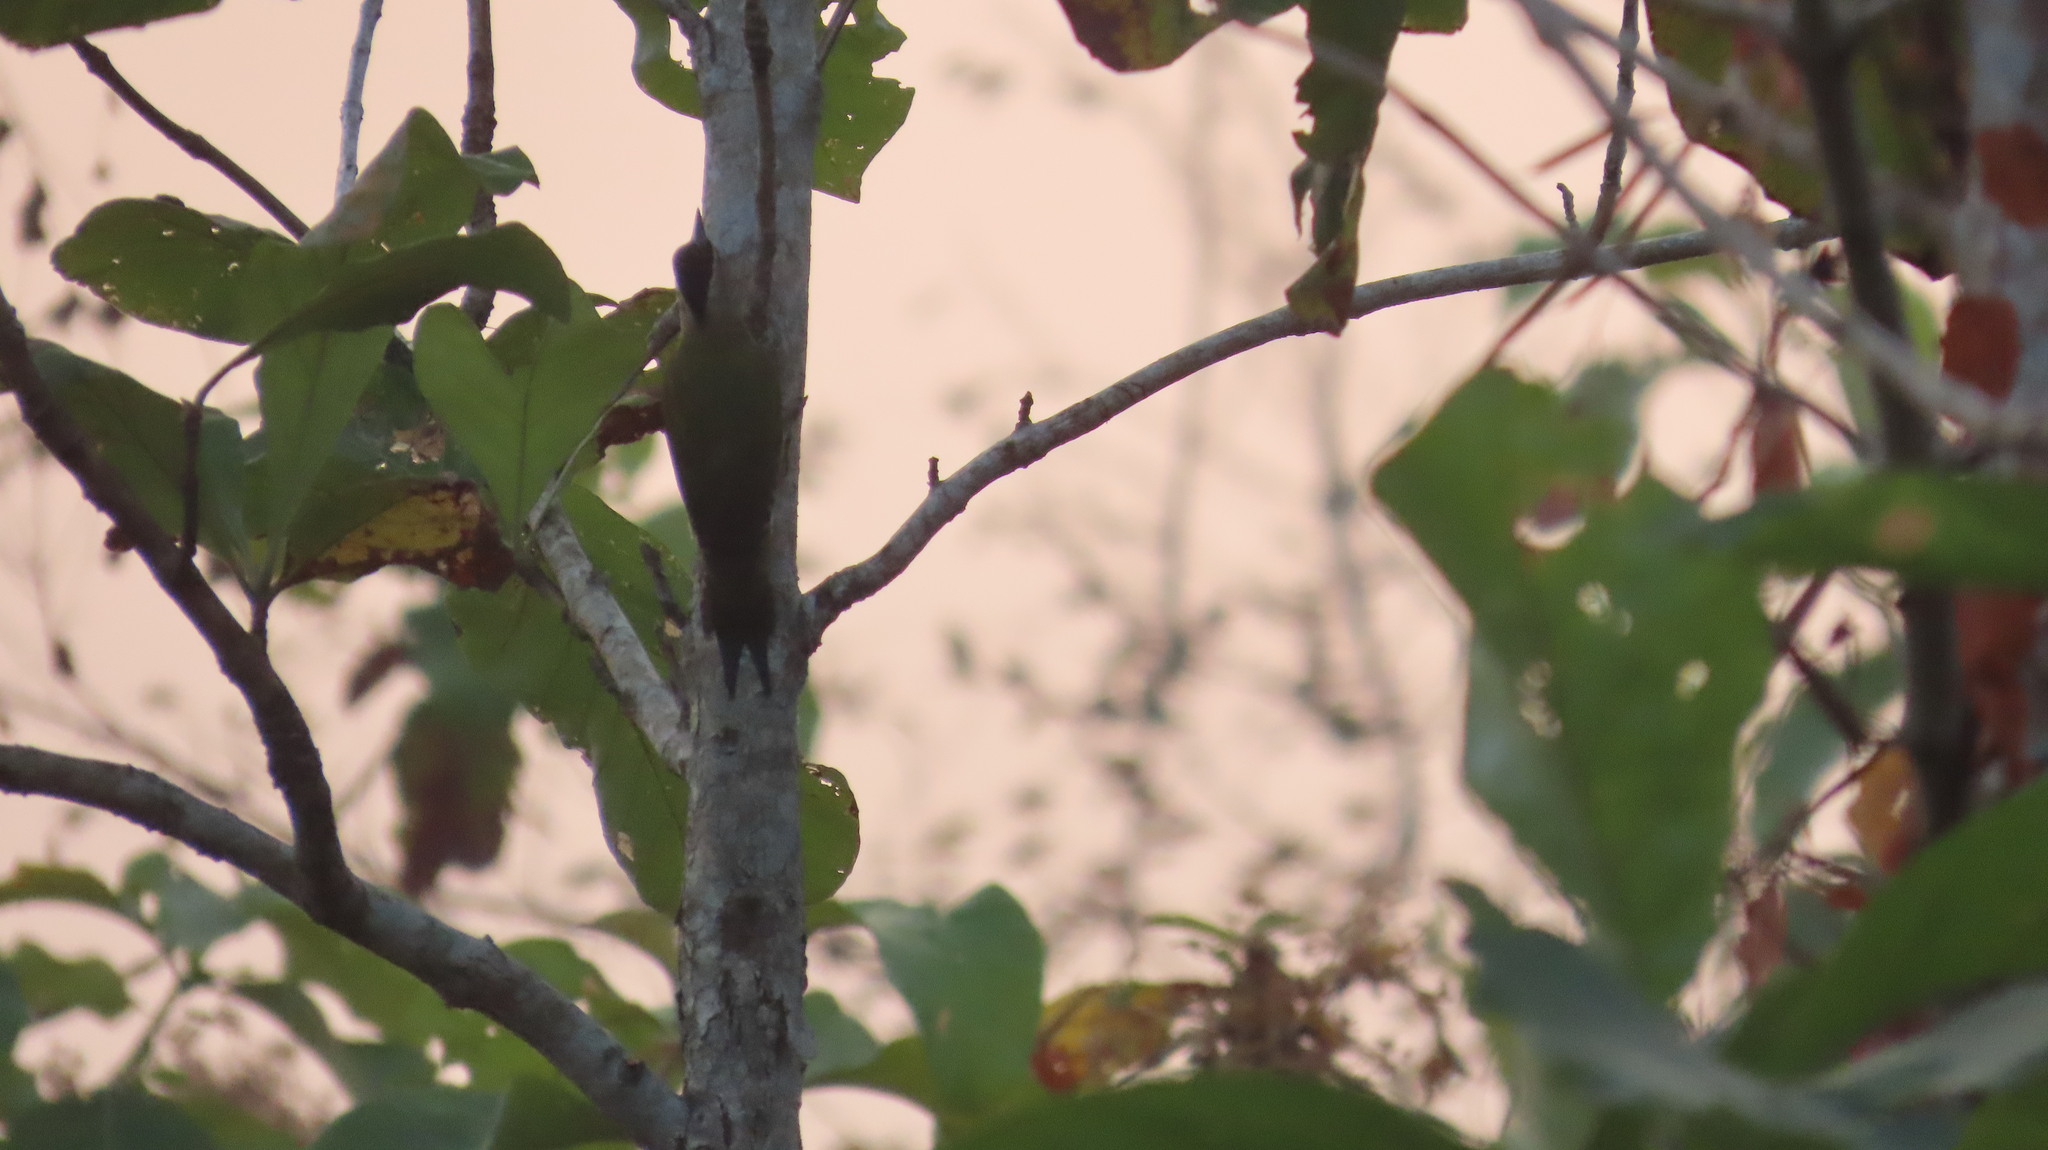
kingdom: Animalia
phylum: Chordata
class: Aves
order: Piciformes
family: Picidae
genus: Picus
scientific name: Picus xanthopygaeus
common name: Streak-throated woodpecker
